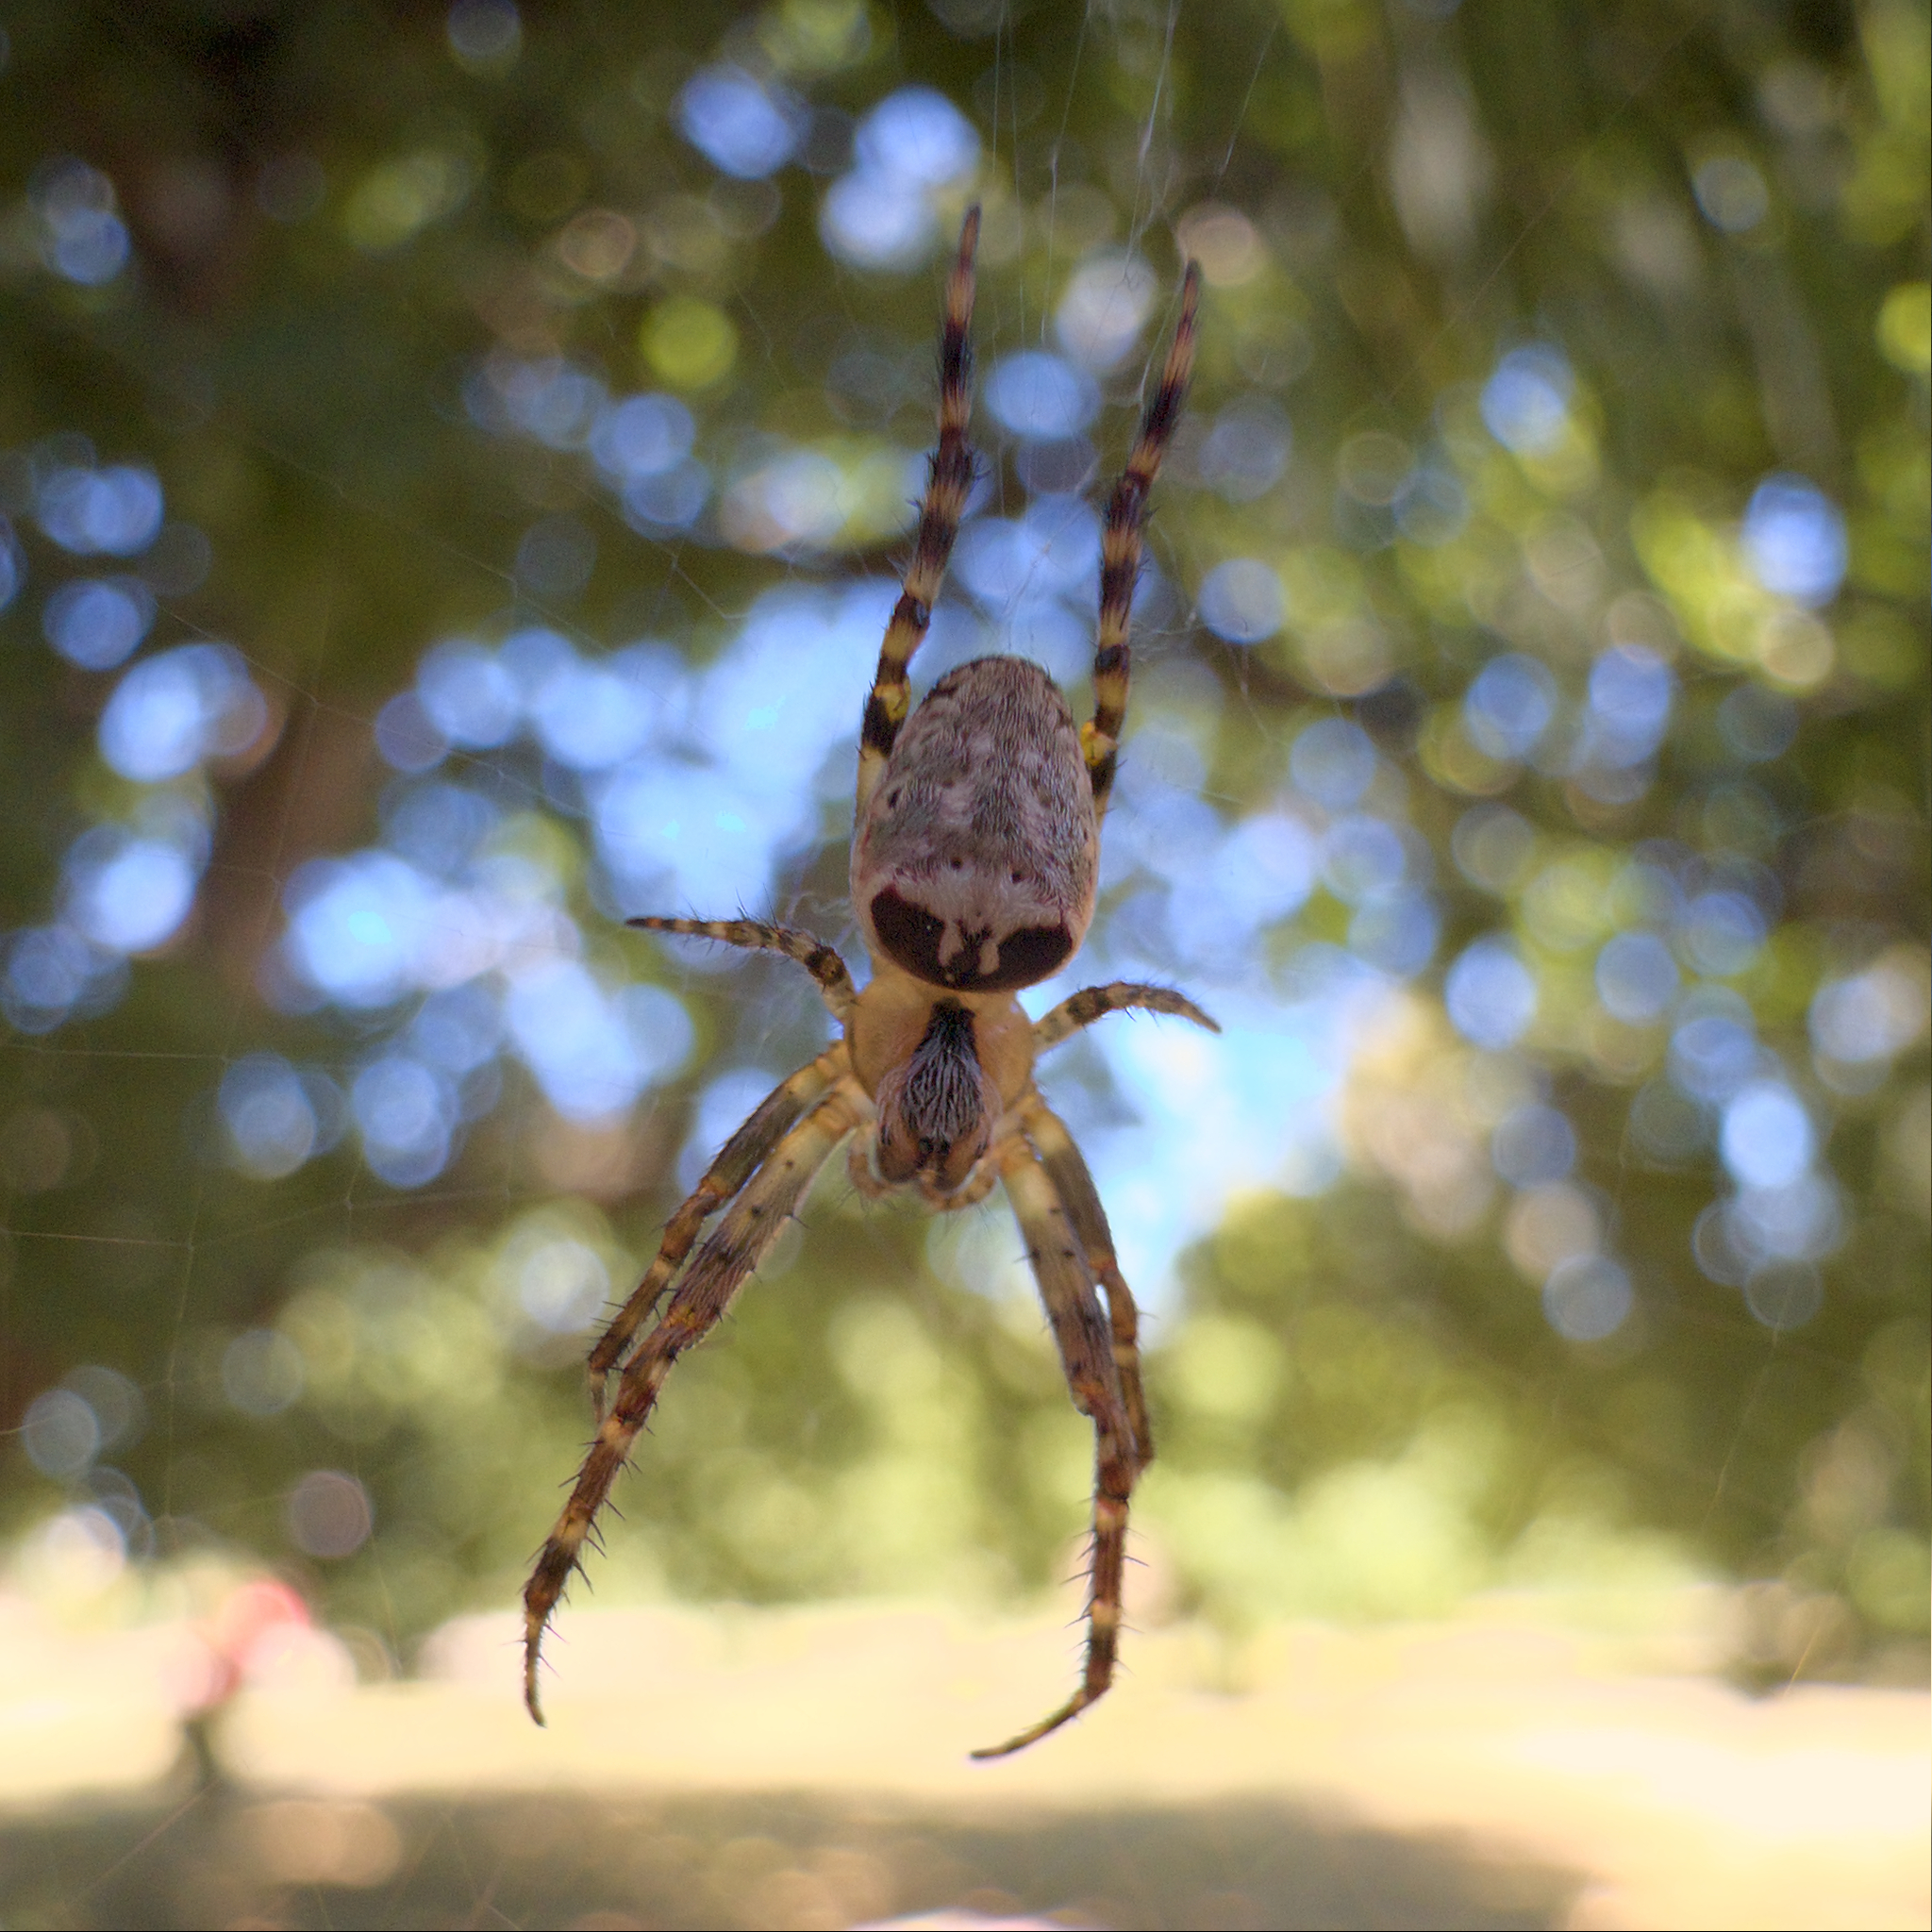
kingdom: Animalia
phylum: Arthropoda
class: Arachnida
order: Araneae
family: Araneidae
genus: Plebs
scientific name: Plebs eburnus
